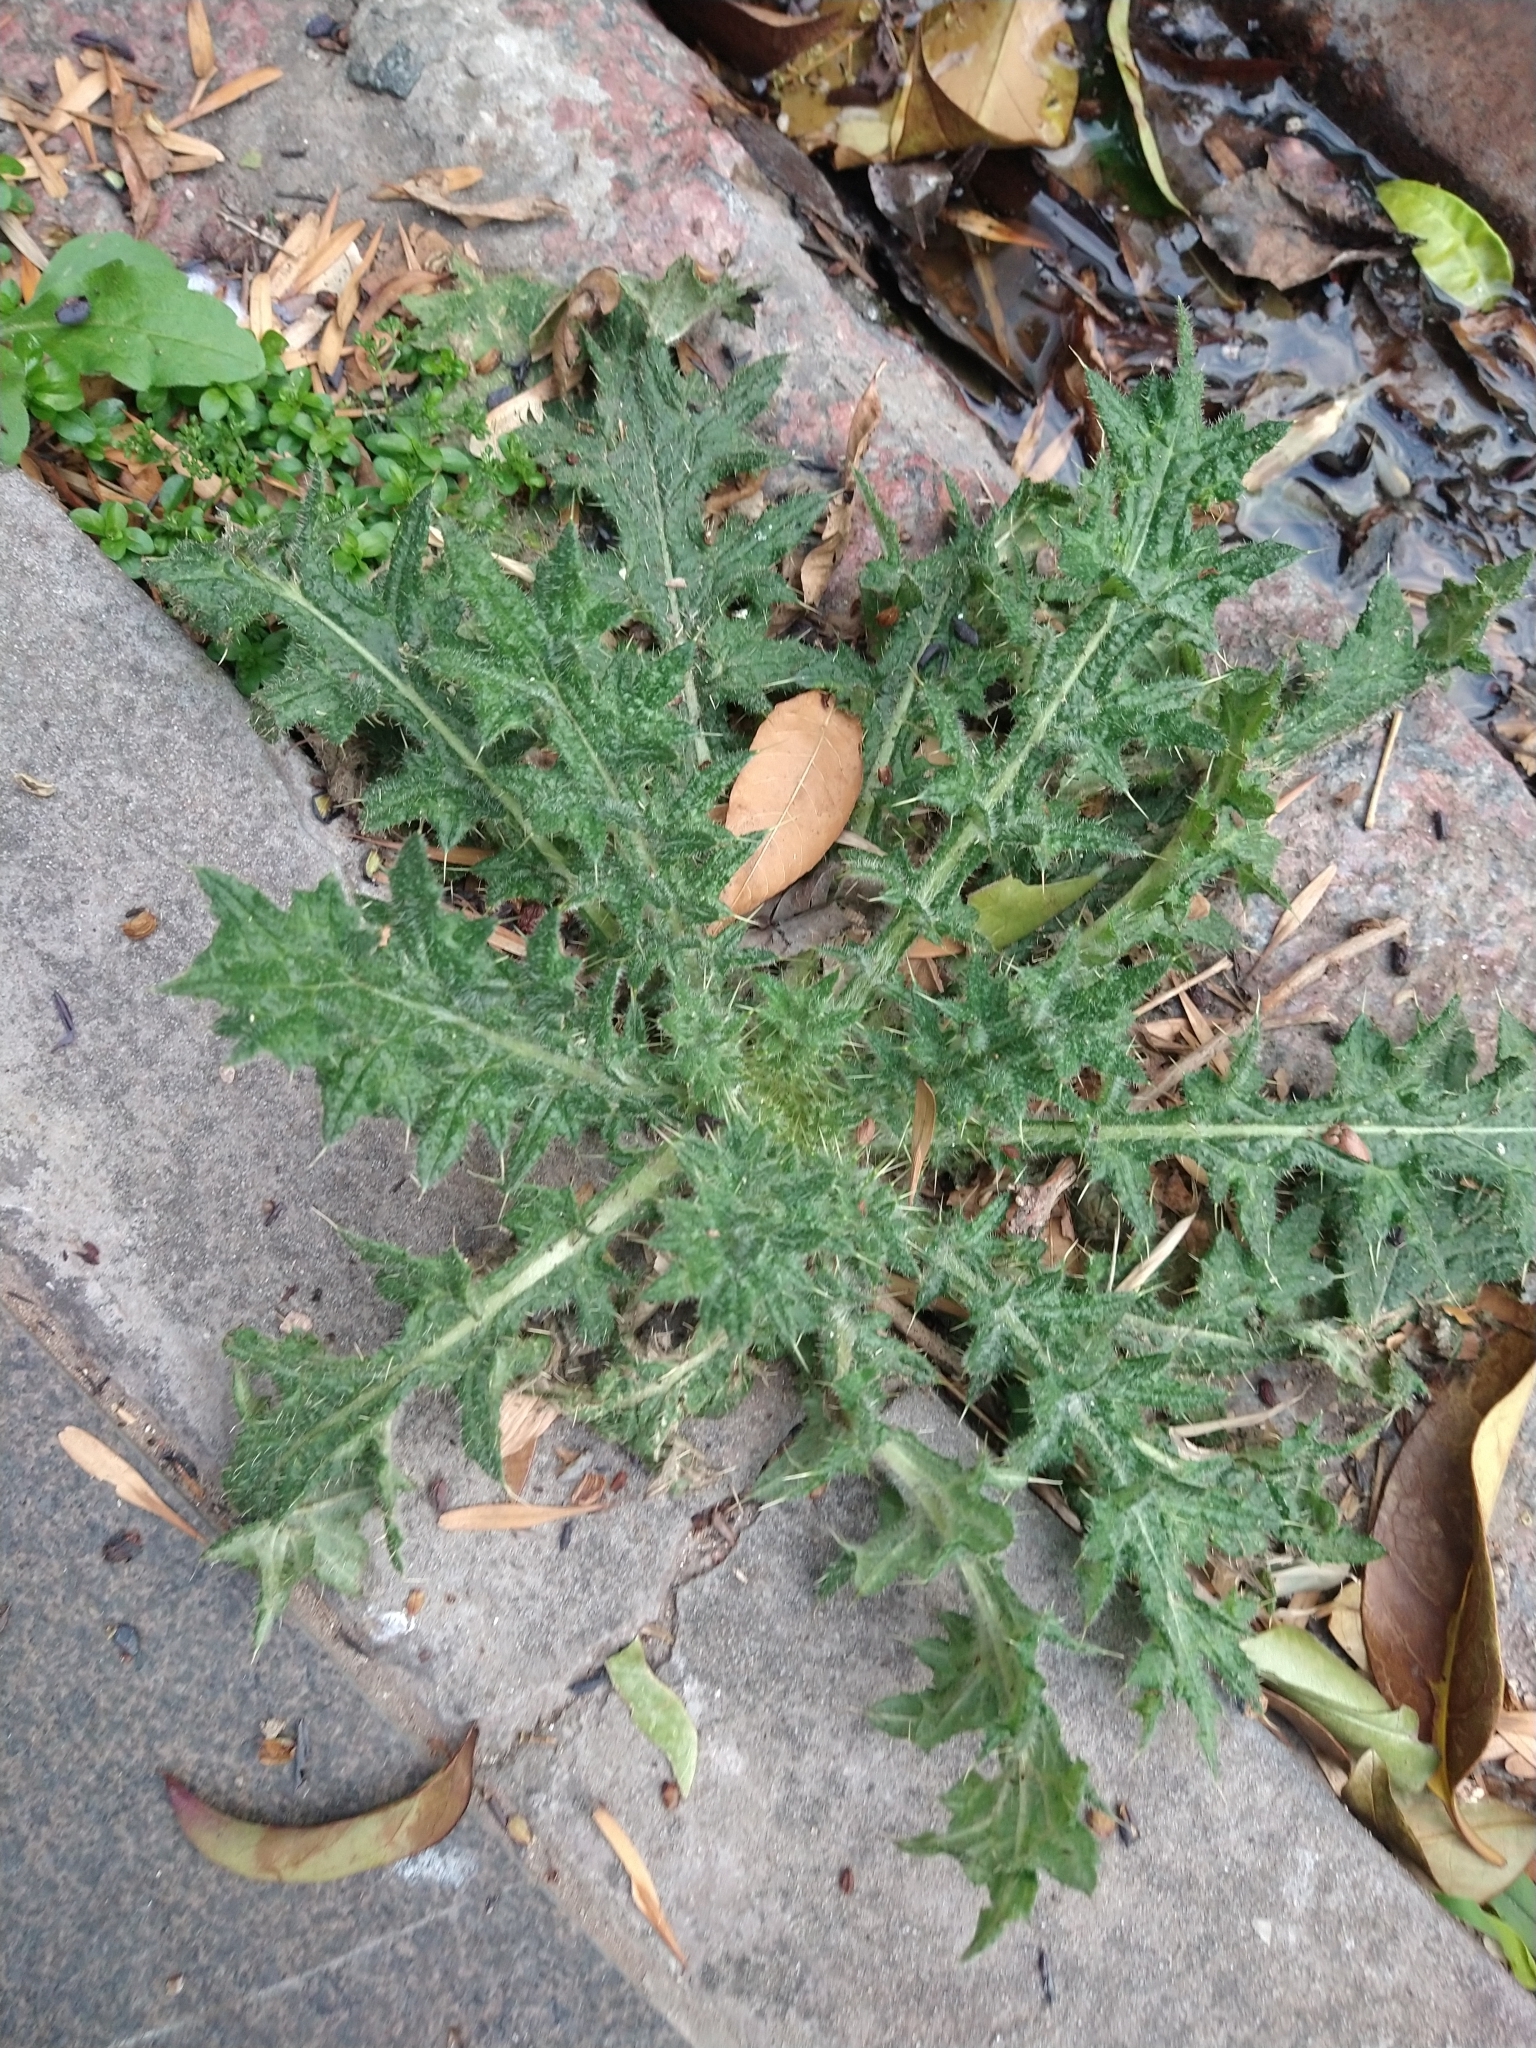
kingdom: Plantae
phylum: Tracheophyta
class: Magnoliopsida
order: Asterales
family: Asteraceae
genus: Cirsium
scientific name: Cirsium vulgare
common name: Bull thistle
